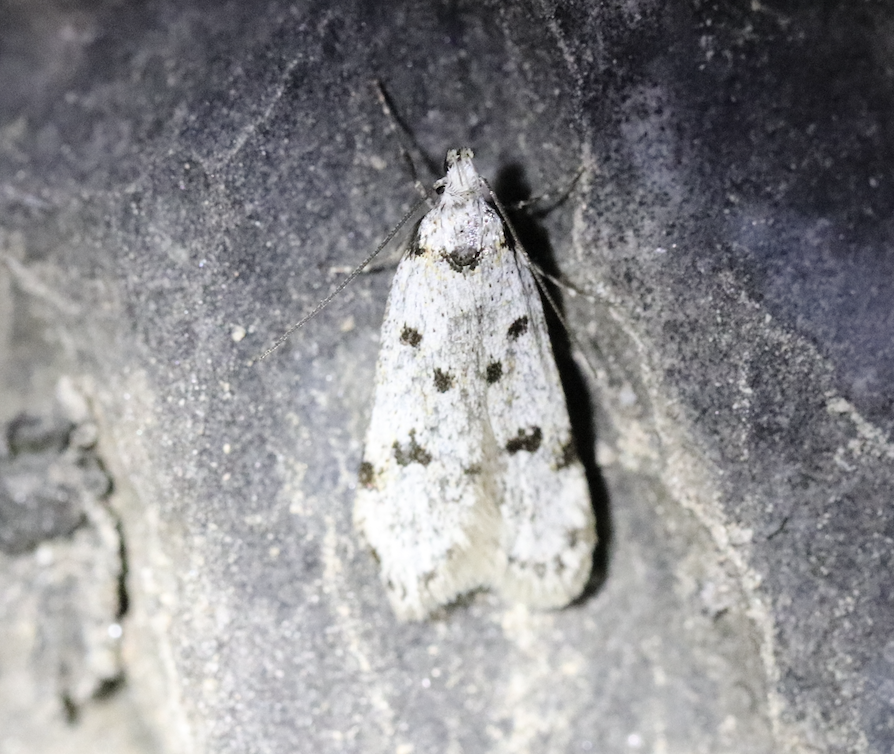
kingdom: Animalia
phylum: Arthropoda
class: Insecta
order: Lepidoptera
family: Autostichidae
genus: Symmoca
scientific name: Symmoca caliginella
